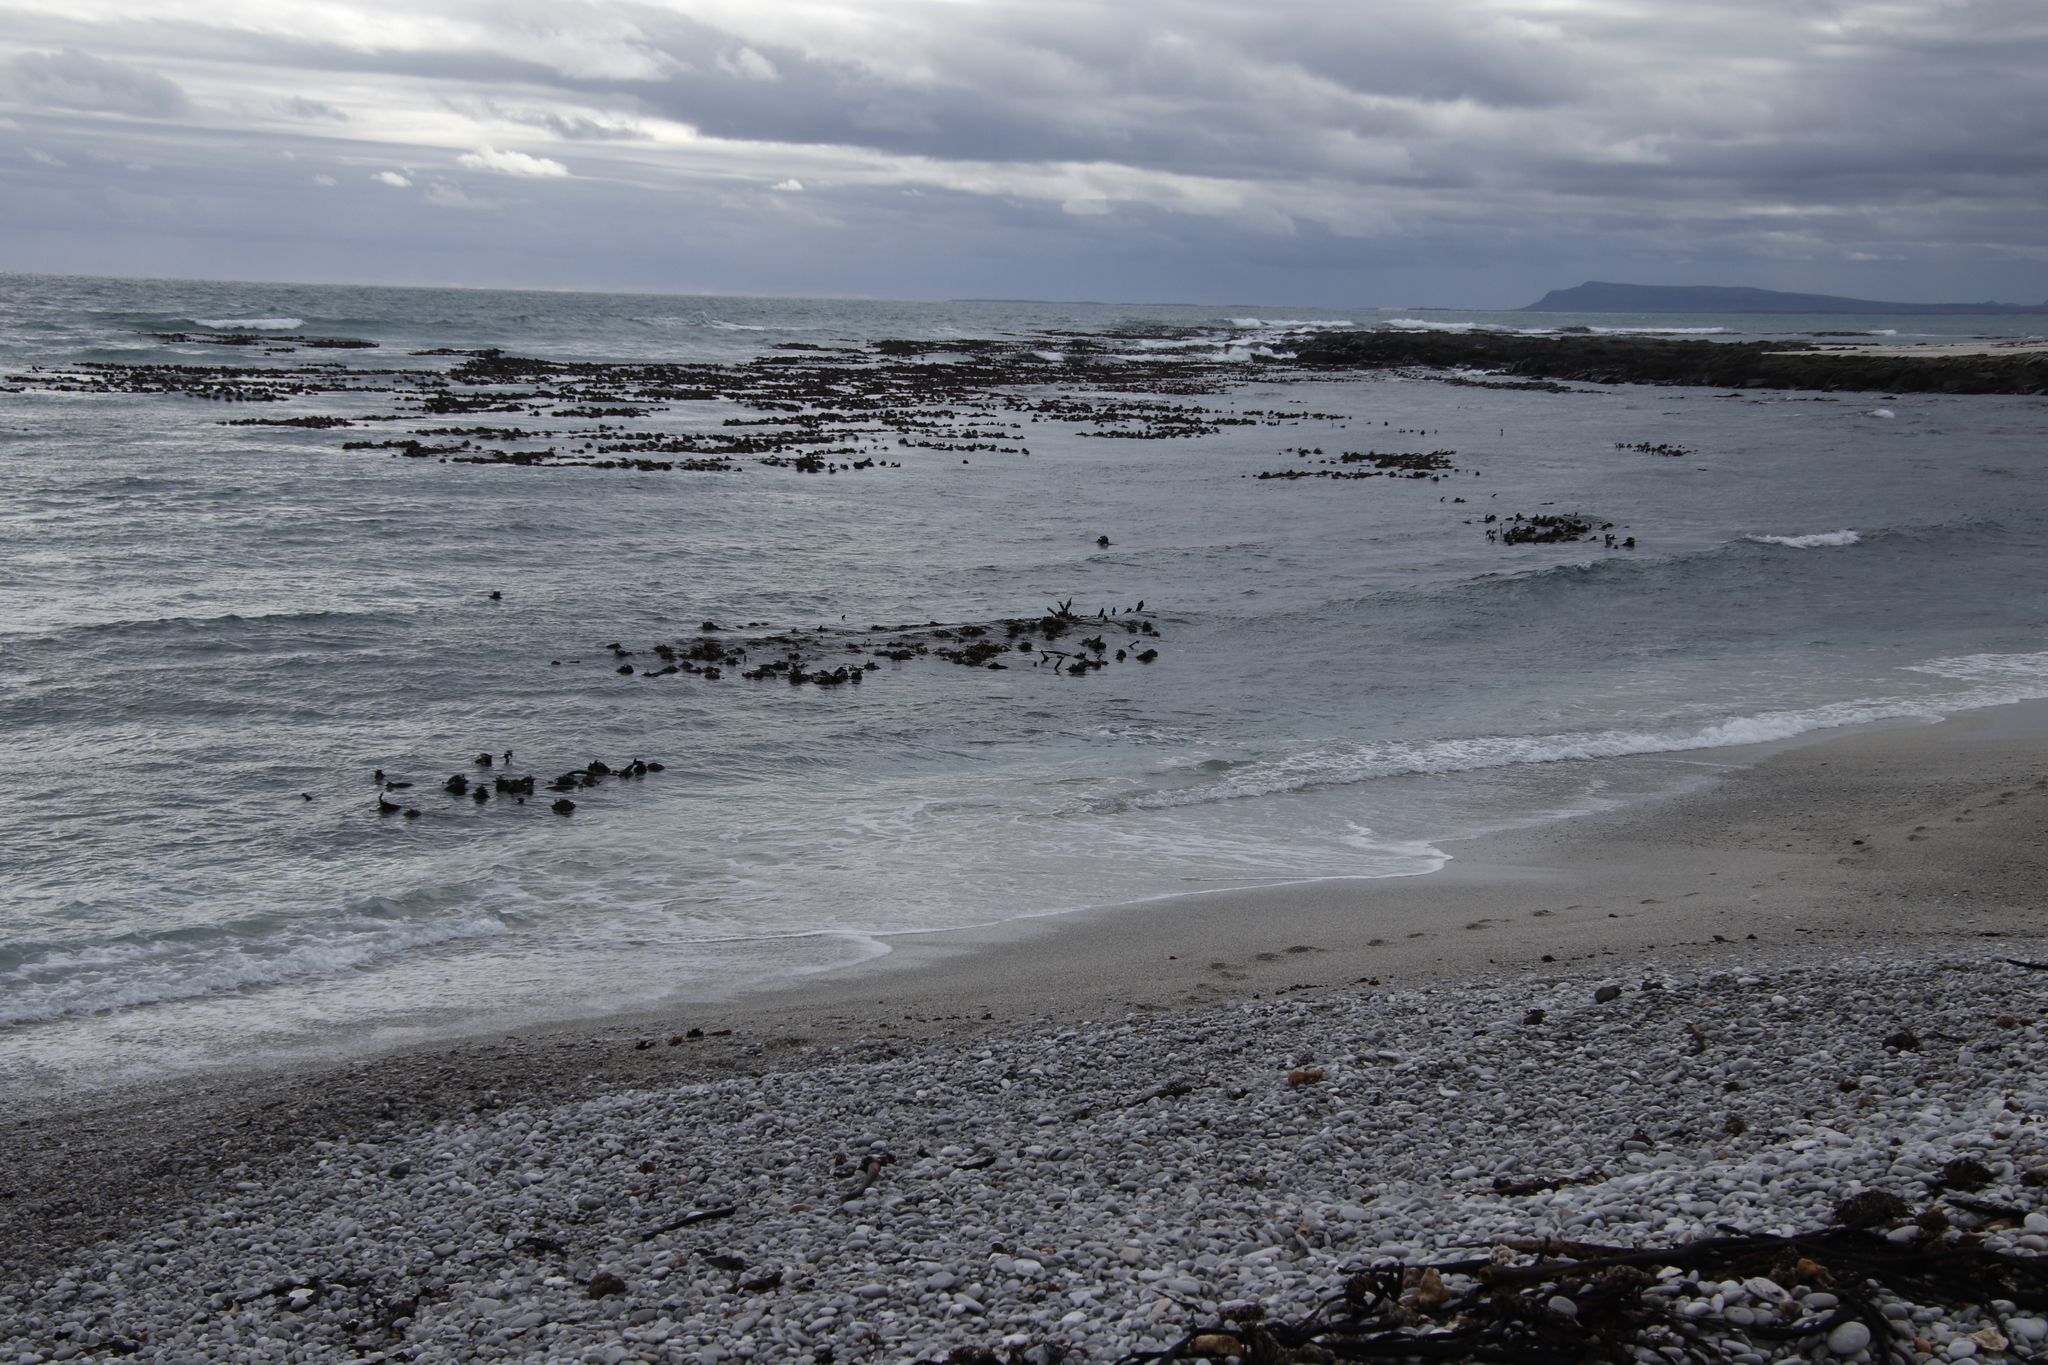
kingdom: Chromista
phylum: Ochrophyta
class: Phaeophyceae
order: Laminariales
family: Lessoniaceae
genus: Ecklonia
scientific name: Ecklonia
